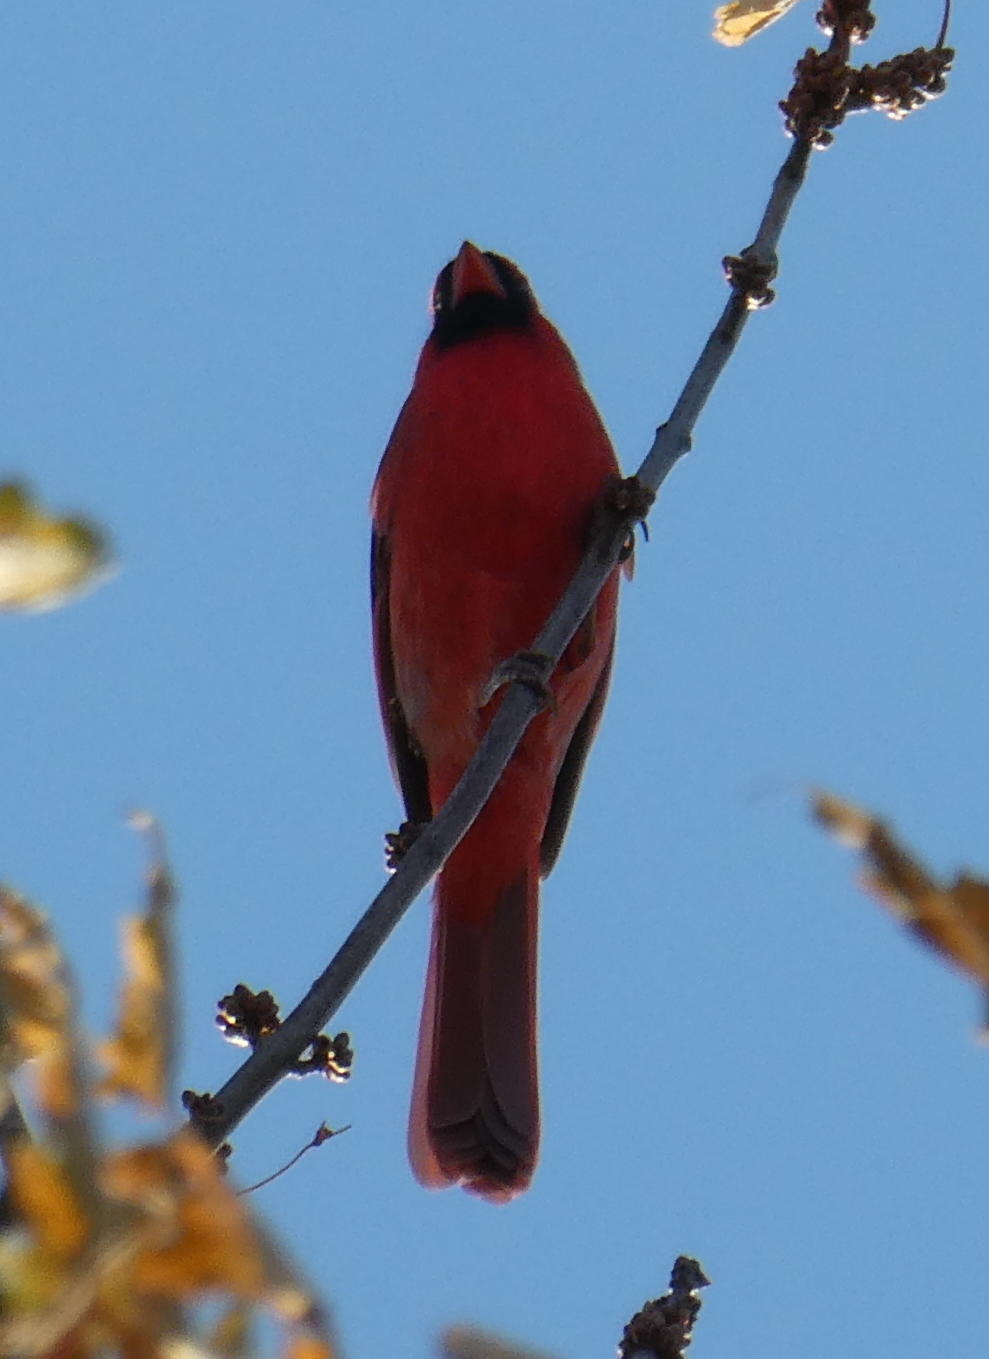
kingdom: Animalia
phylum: Chordata
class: Aves
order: Passeriformes
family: Cardinalidae
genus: Cardinalis
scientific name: Cardinalis cardinalis
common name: Northern cardinal
